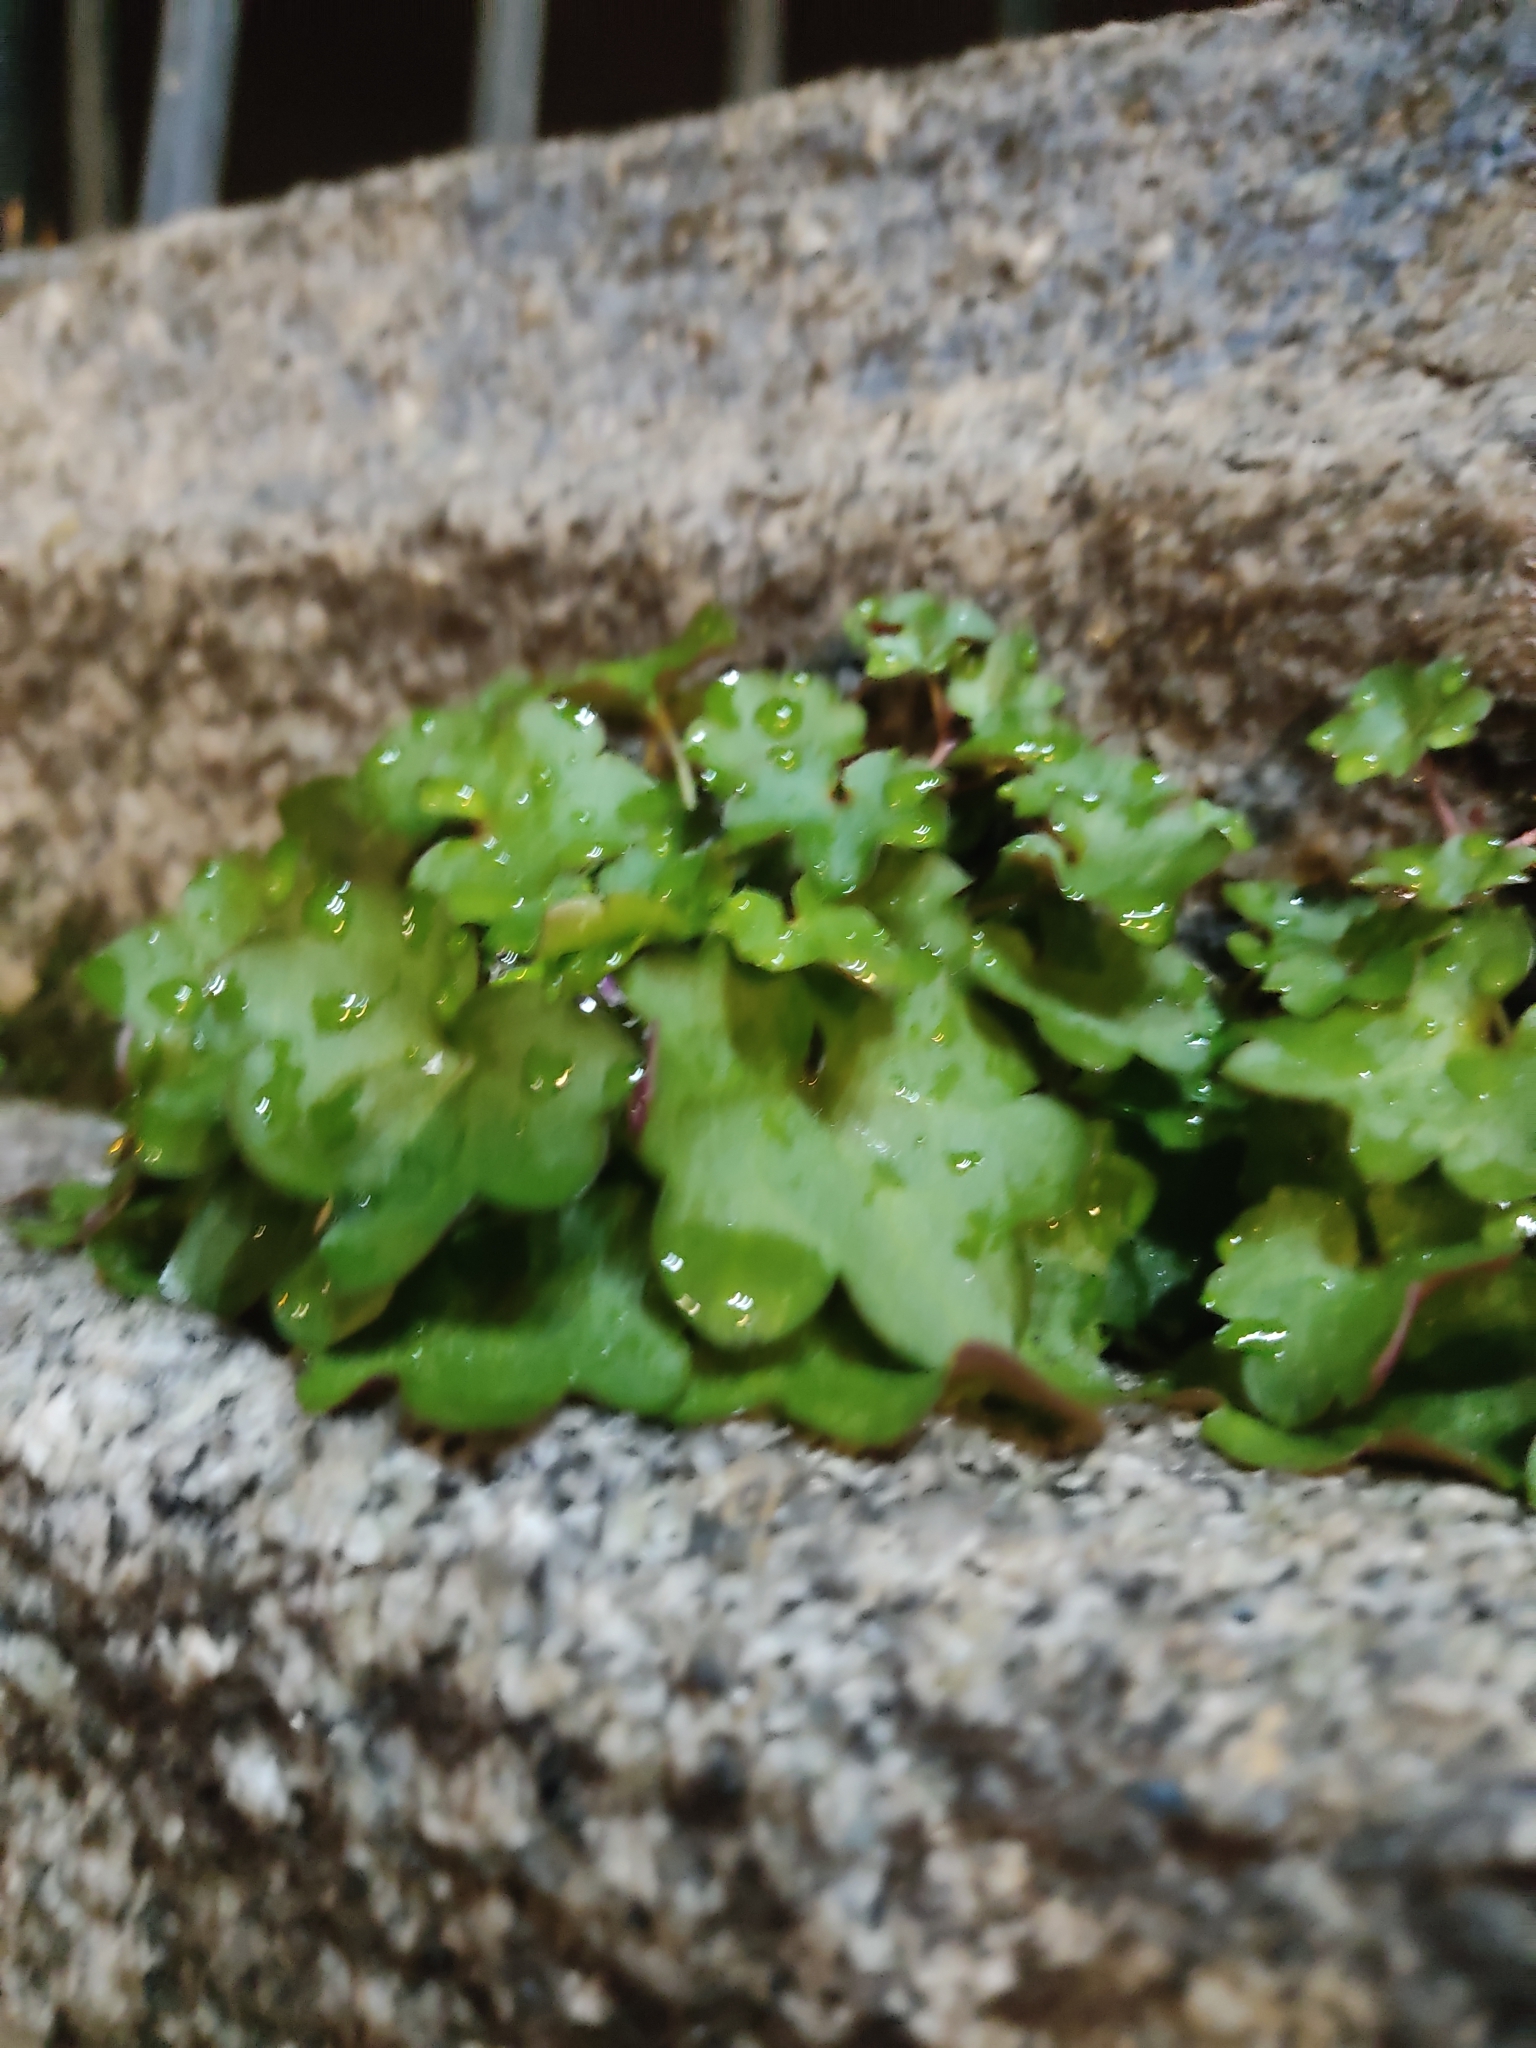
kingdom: Plantae
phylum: Tracheophyta
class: Magnoliopsida
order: Lamiales
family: Plantaginaceae
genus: Cymbalaria
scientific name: Cymbalaria muralis
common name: Ivy-leaved toadflax
